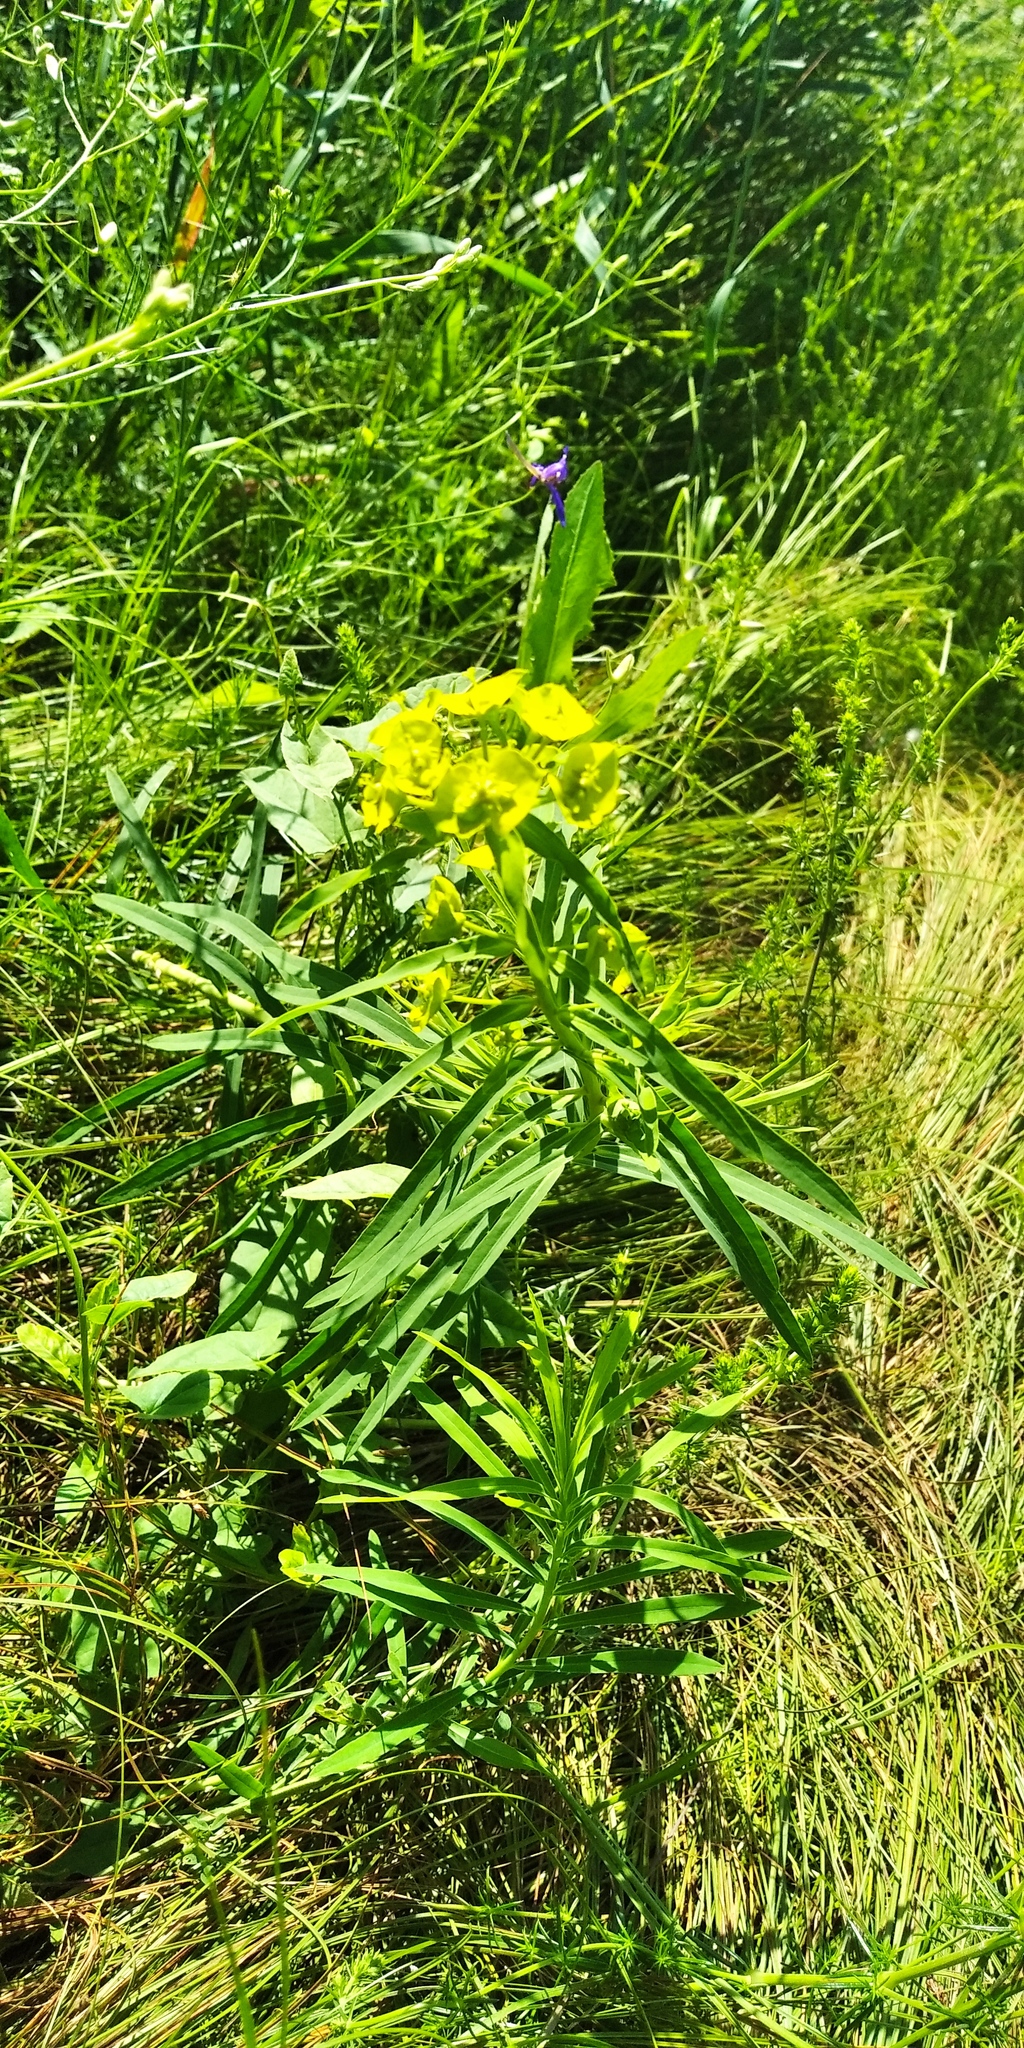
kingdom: Plantae
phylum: Tracheophyta
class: Magnoliopsida
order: Malpighiales
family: Euphorbiaceae
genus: Euphorbia
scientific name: Euphorbia virgata
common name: Leafy spurge
